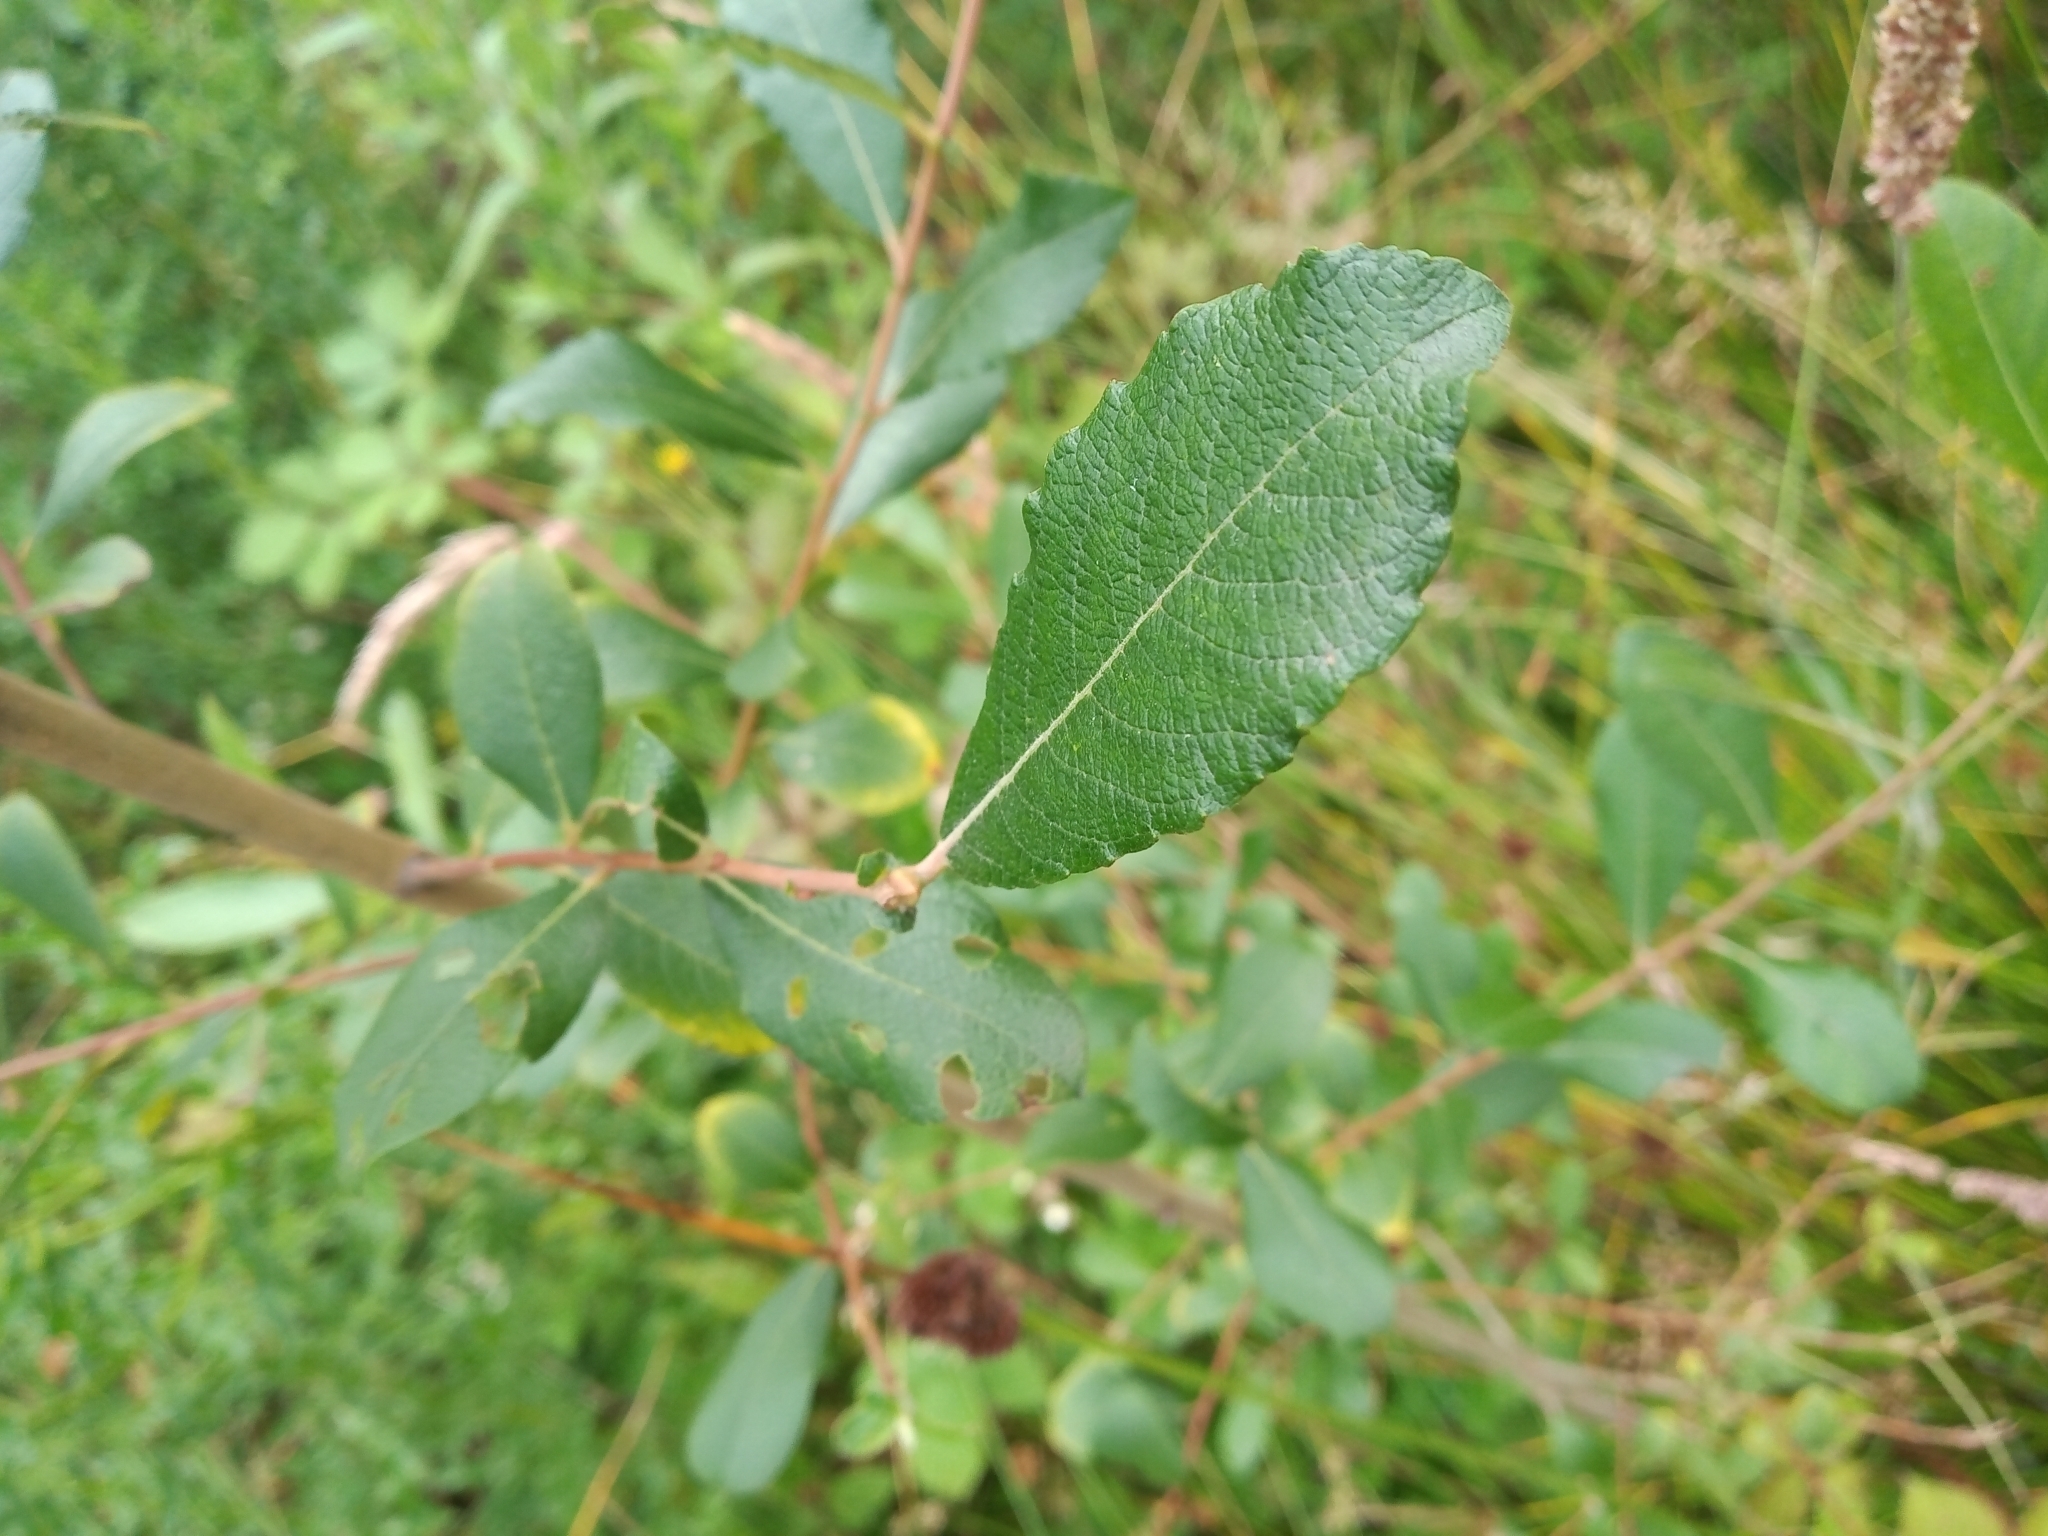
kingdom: Plantae
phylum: Tracheophyta
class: Magnoliopsida
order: Malpighiales
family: Salicaceae
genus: Salix
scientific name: Salix cinerea
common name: Common sallow
